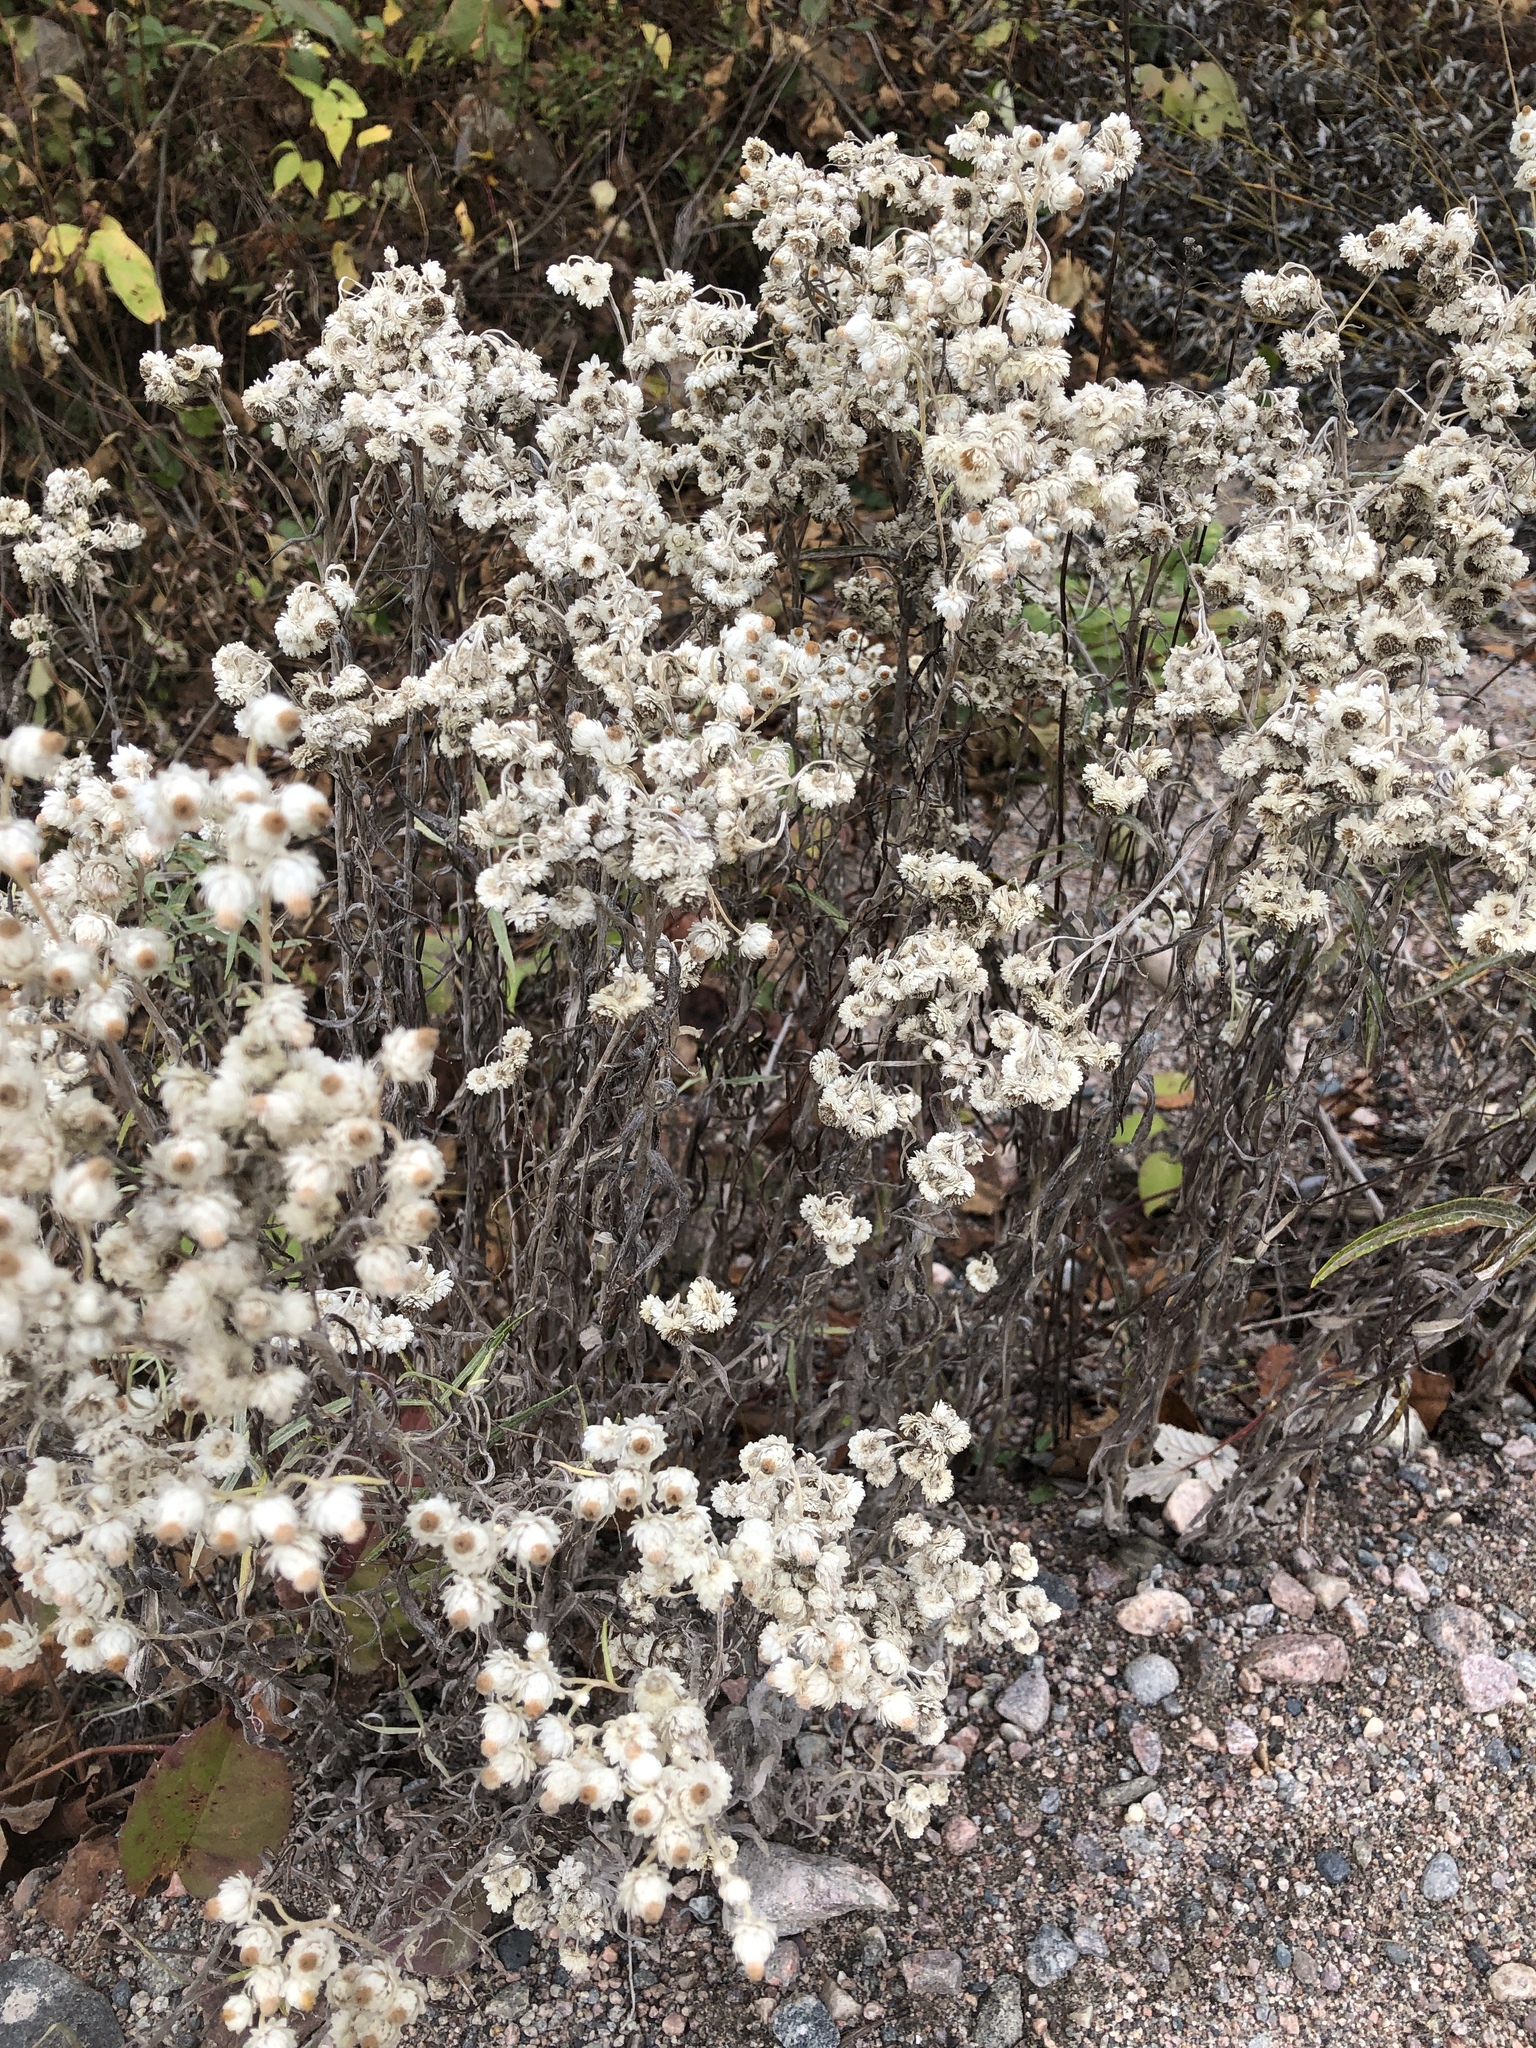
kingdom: Plantae
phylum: Tracheophyta
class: Magnoliopsida
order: Asterales
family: Asteraceae
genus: Anaphalis
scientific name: Anaphalis margaritacea
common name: Pearly everlasting
